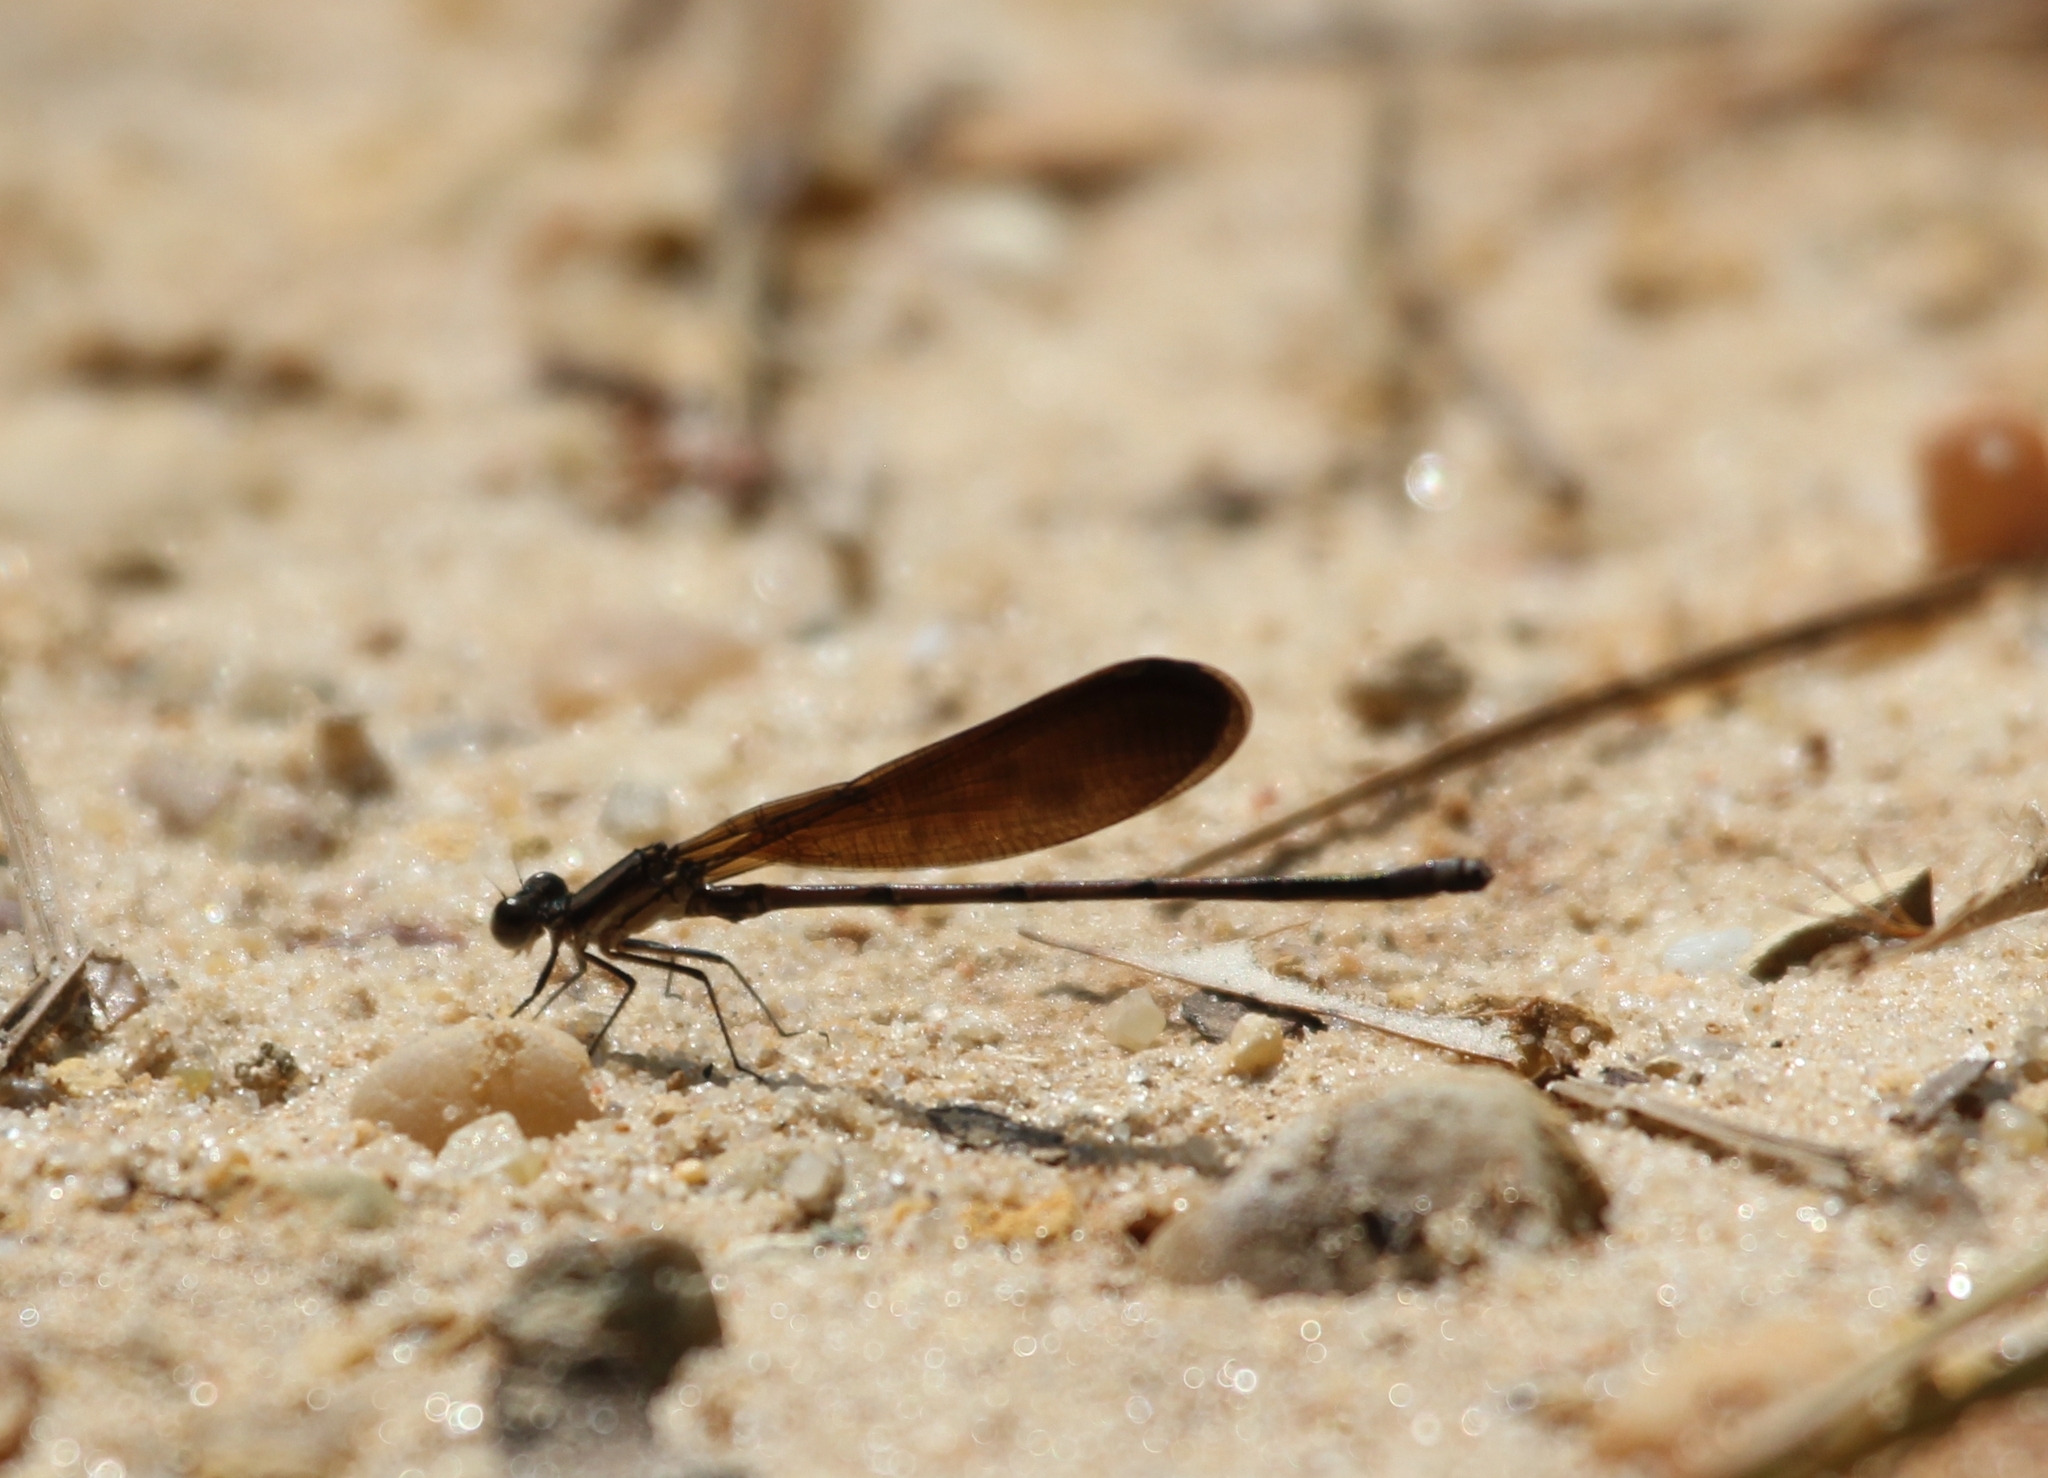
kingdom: Animalia
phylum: Arthropoda
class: Insecta
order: Odonata
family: Coenagrionidae
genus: Argia
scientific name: Argia fumipennis
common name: Variable dancer
